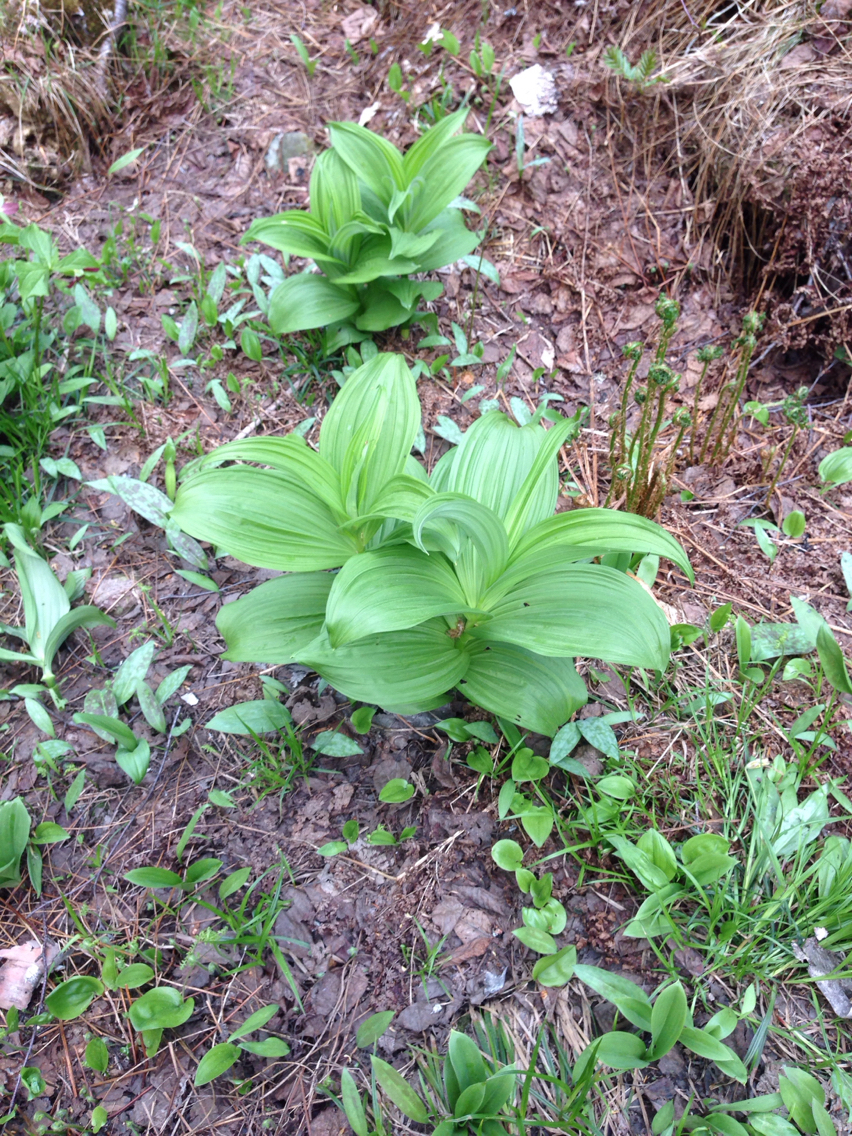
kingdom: Plantae
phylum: Tracheophyta
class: Liliopsida
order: Liliales
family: Melanthiaceae
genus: Veratrum
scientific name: Veratrum viride
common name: American false hellebore
